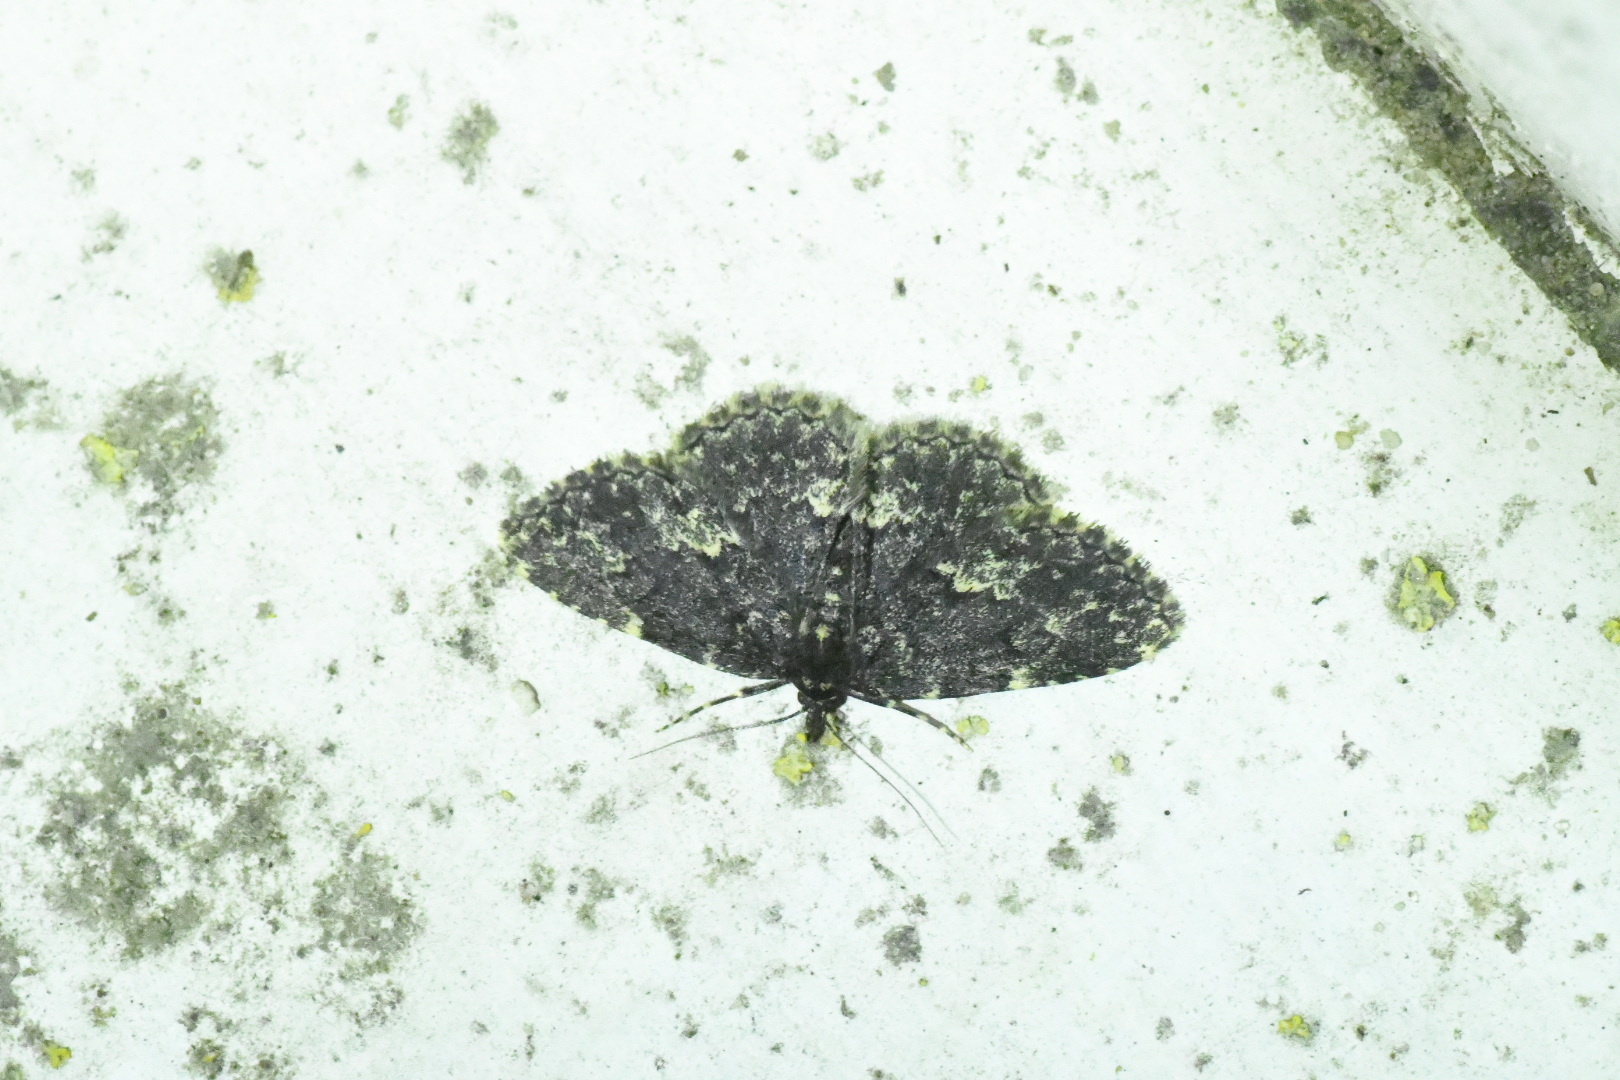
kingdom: Animalia
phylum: Arthropoda
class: Insecta
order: Lepidoptera
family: Erebidae
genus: Parascotia
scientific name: Parascotia fuliginaria
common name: Waved black
